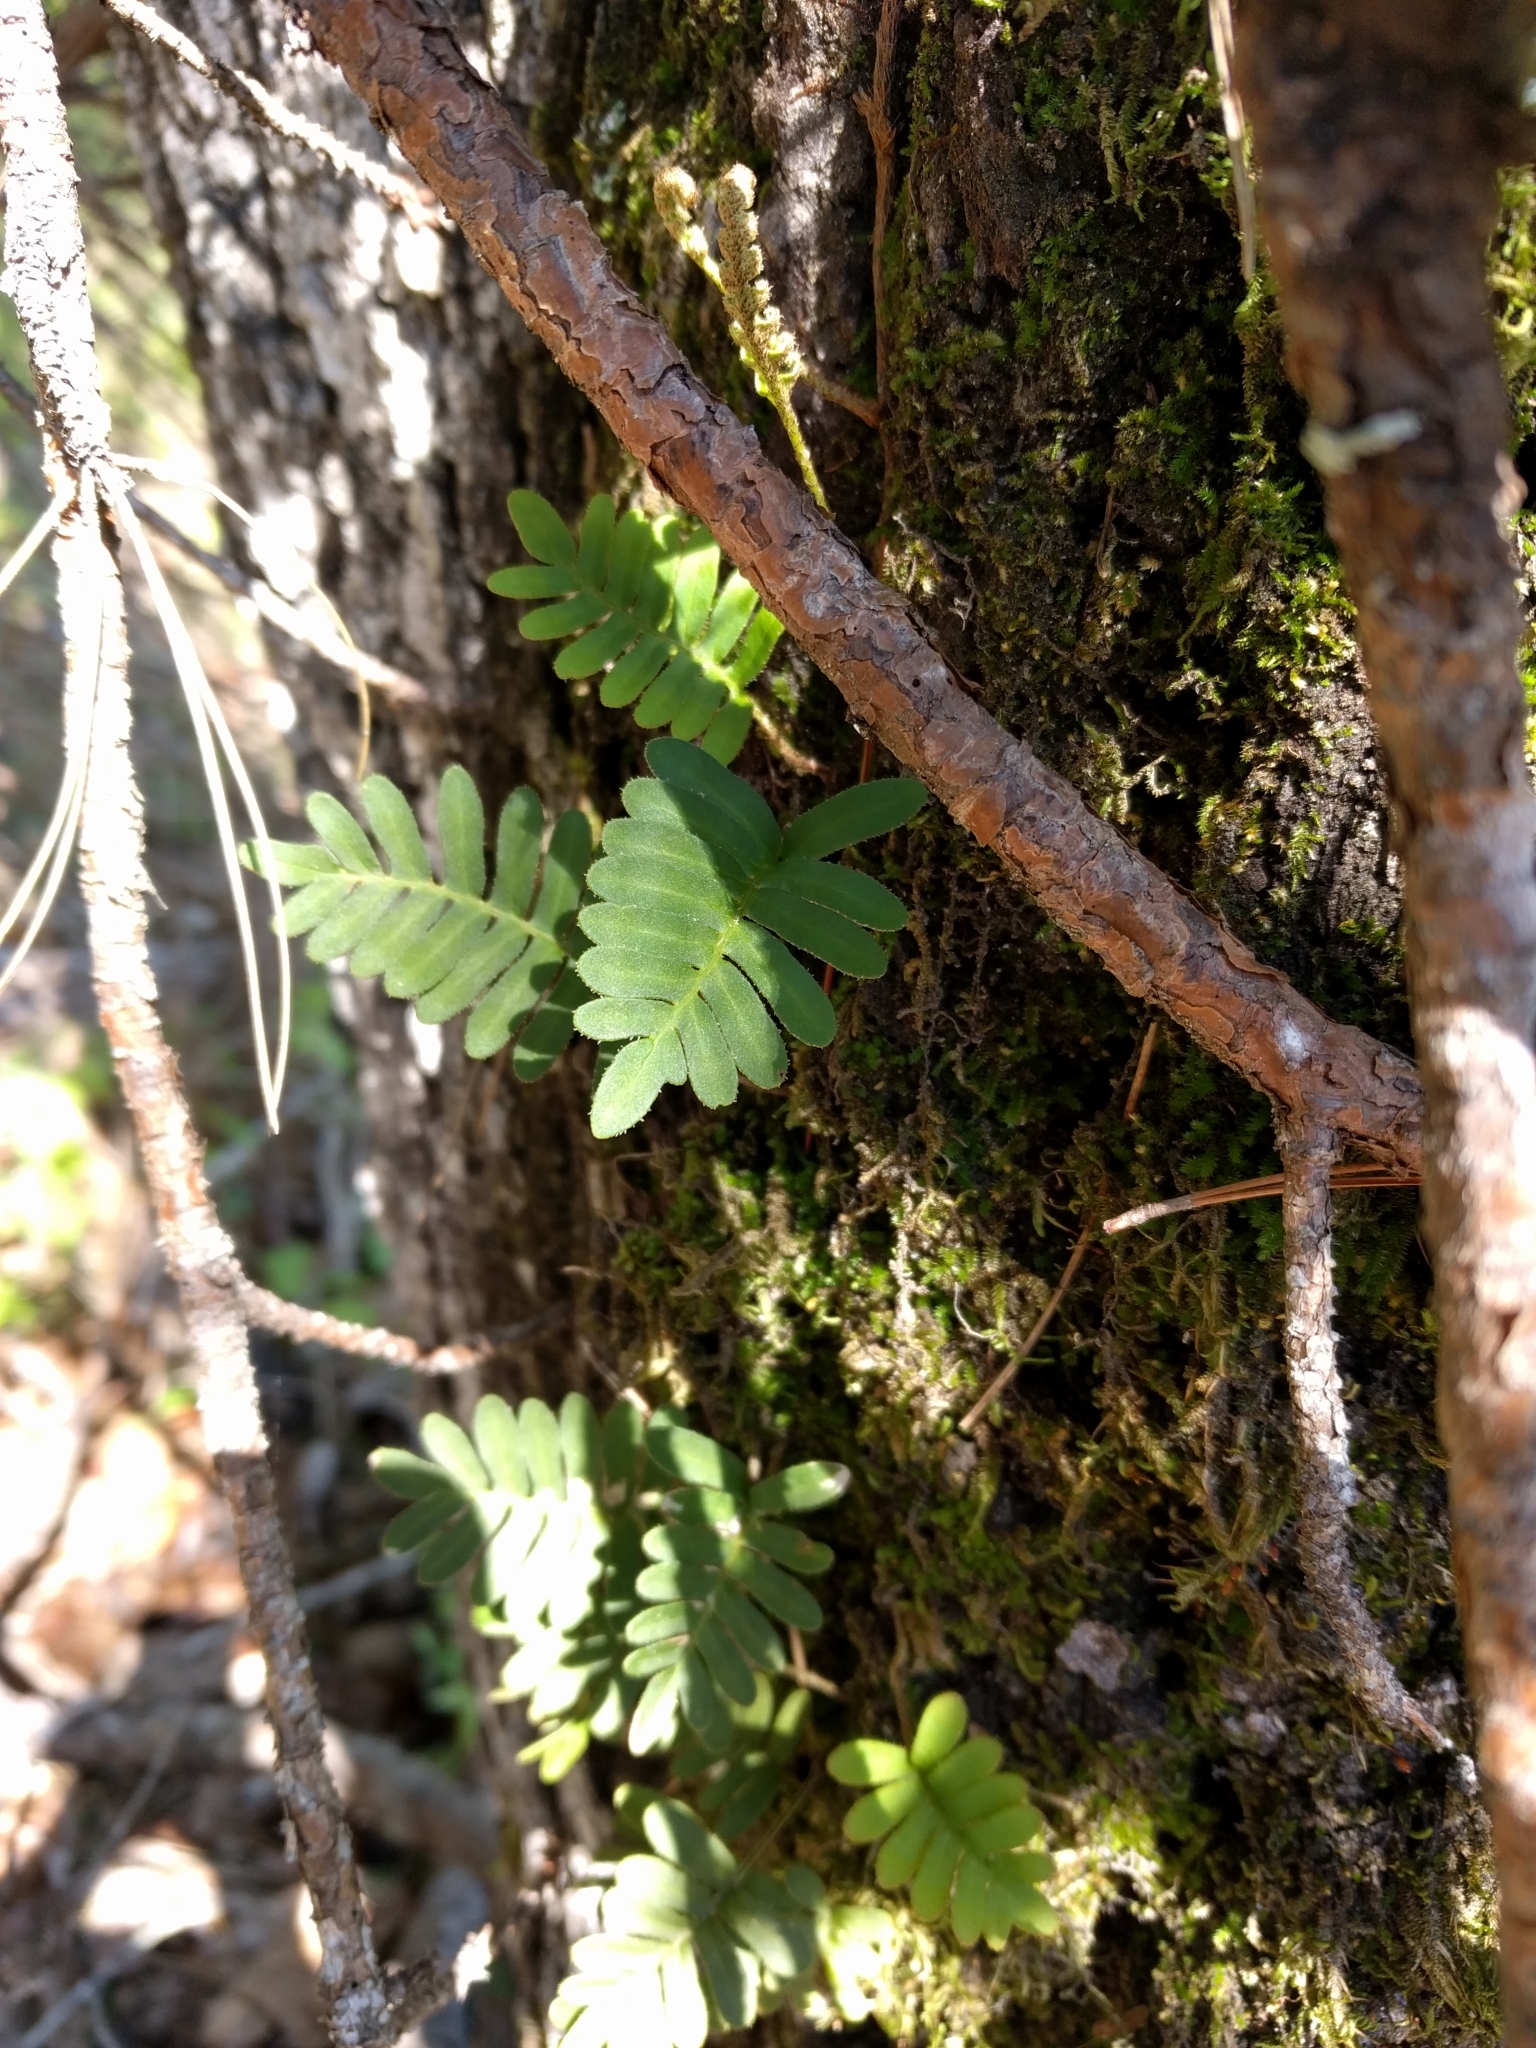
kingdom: Plantae
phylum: Tracheophyta
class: Polypodiopsida
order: Polypodiales
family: Polypodiaceae
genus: Pleopeltis
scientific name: Pleopeltis michauxiana
